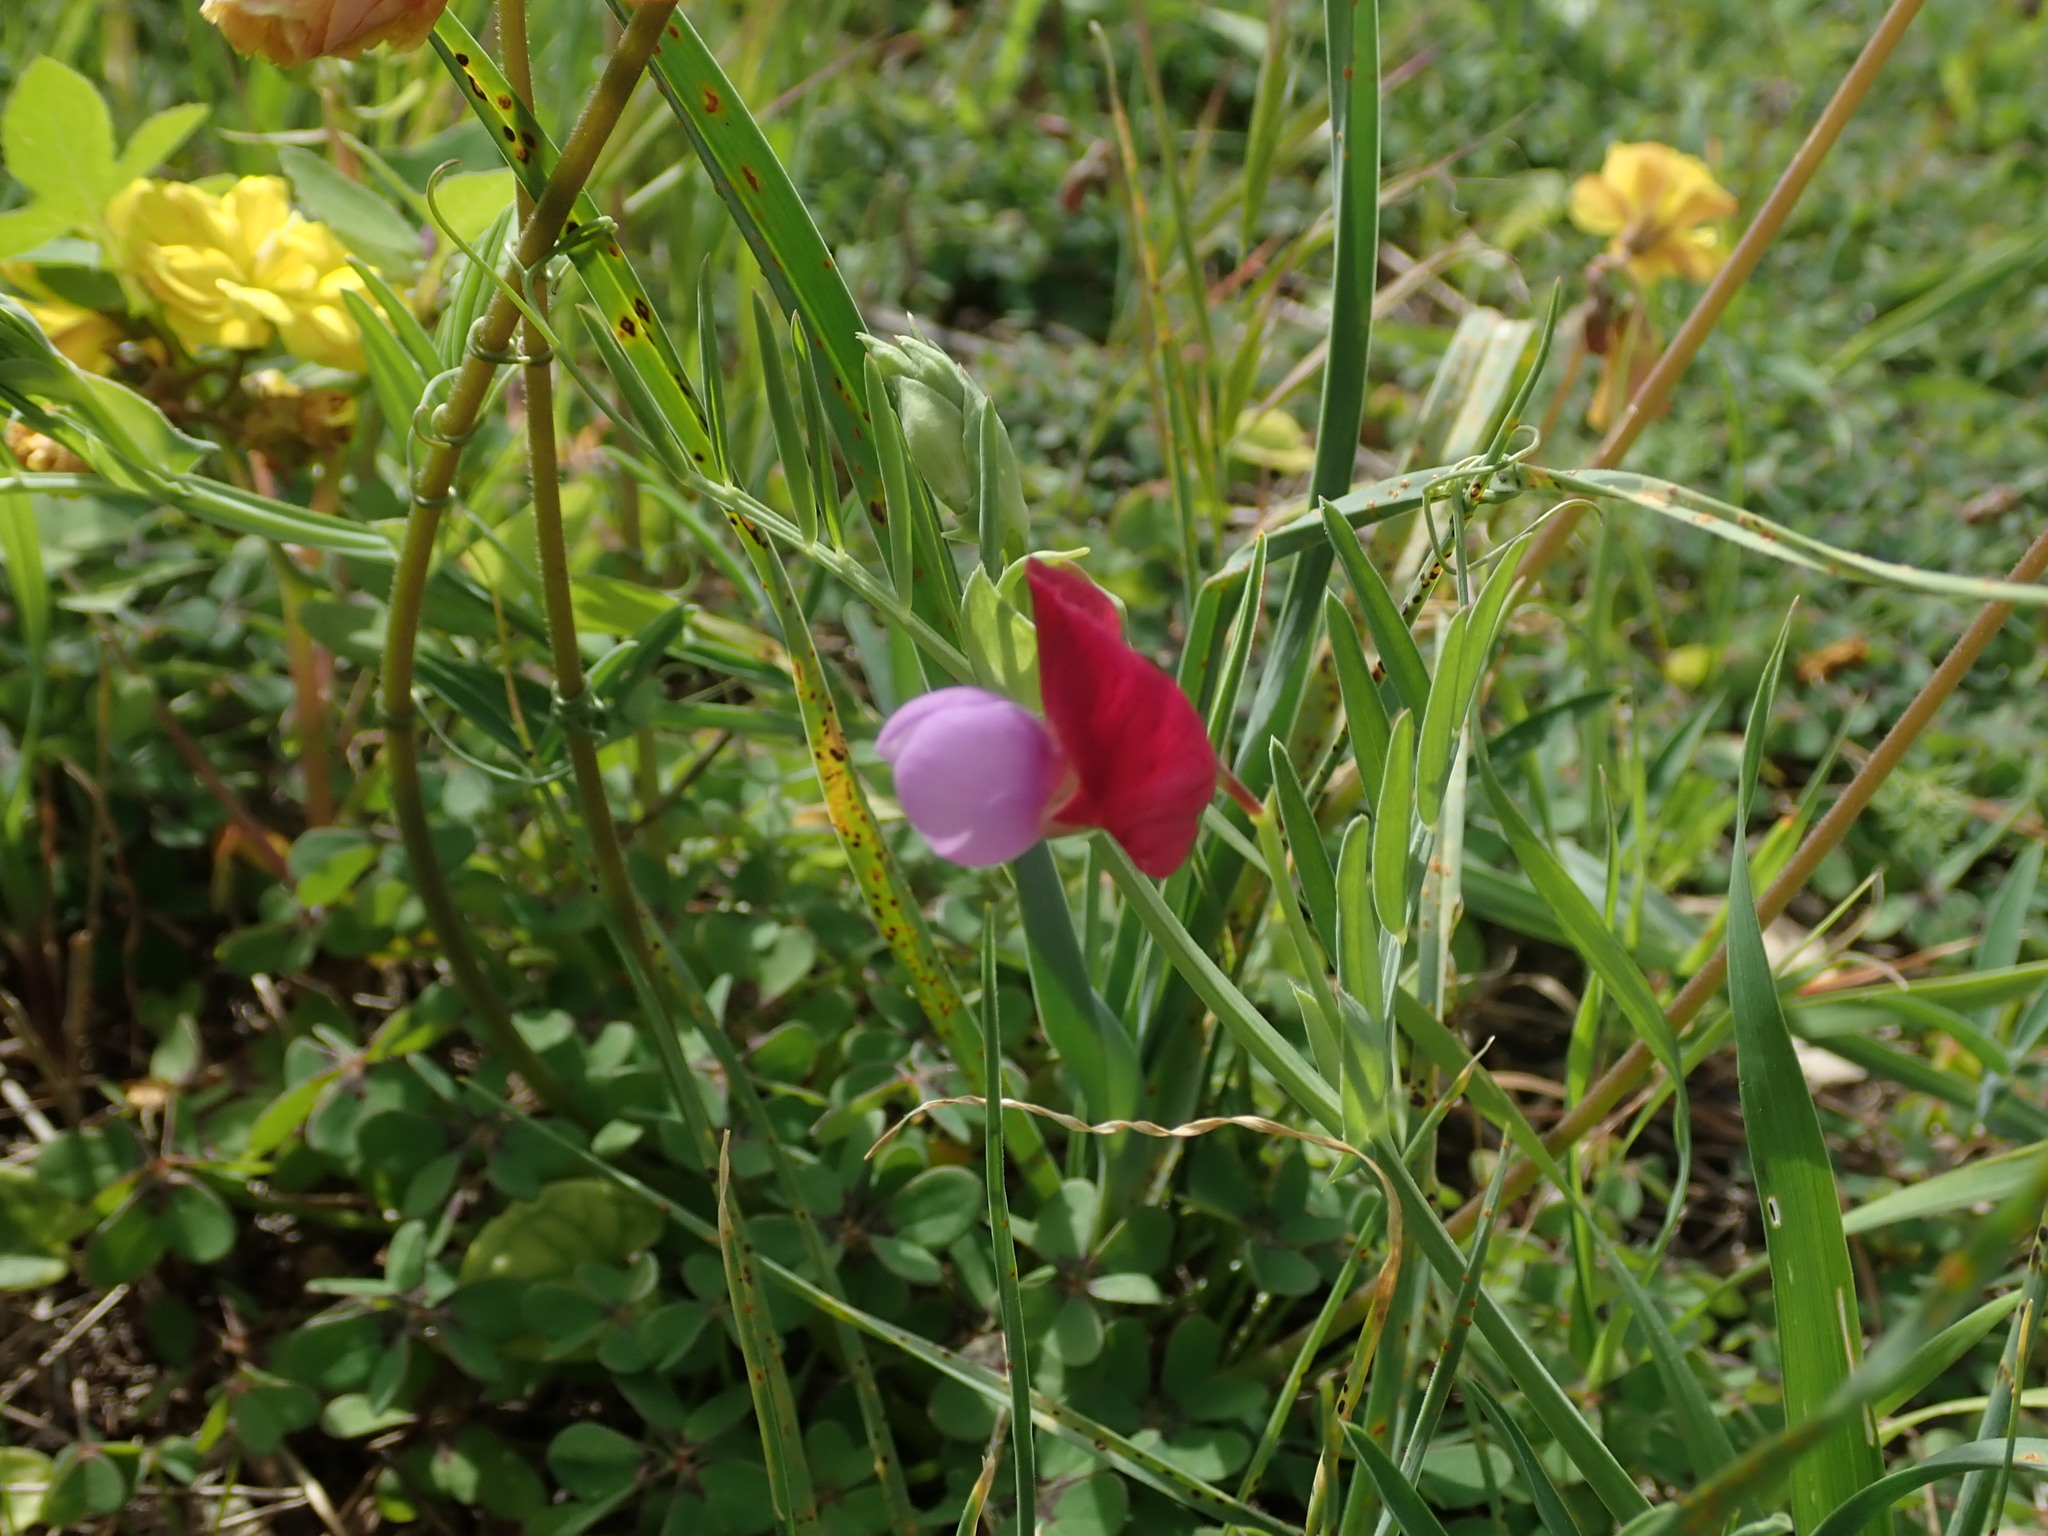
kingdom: Plantae
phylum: Tracheophyta
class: Magnoliopsida
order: Fabales
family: Fabaceae
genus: Lathyrus
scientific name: Lathyrus clymenum
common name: Spanish vetchling
